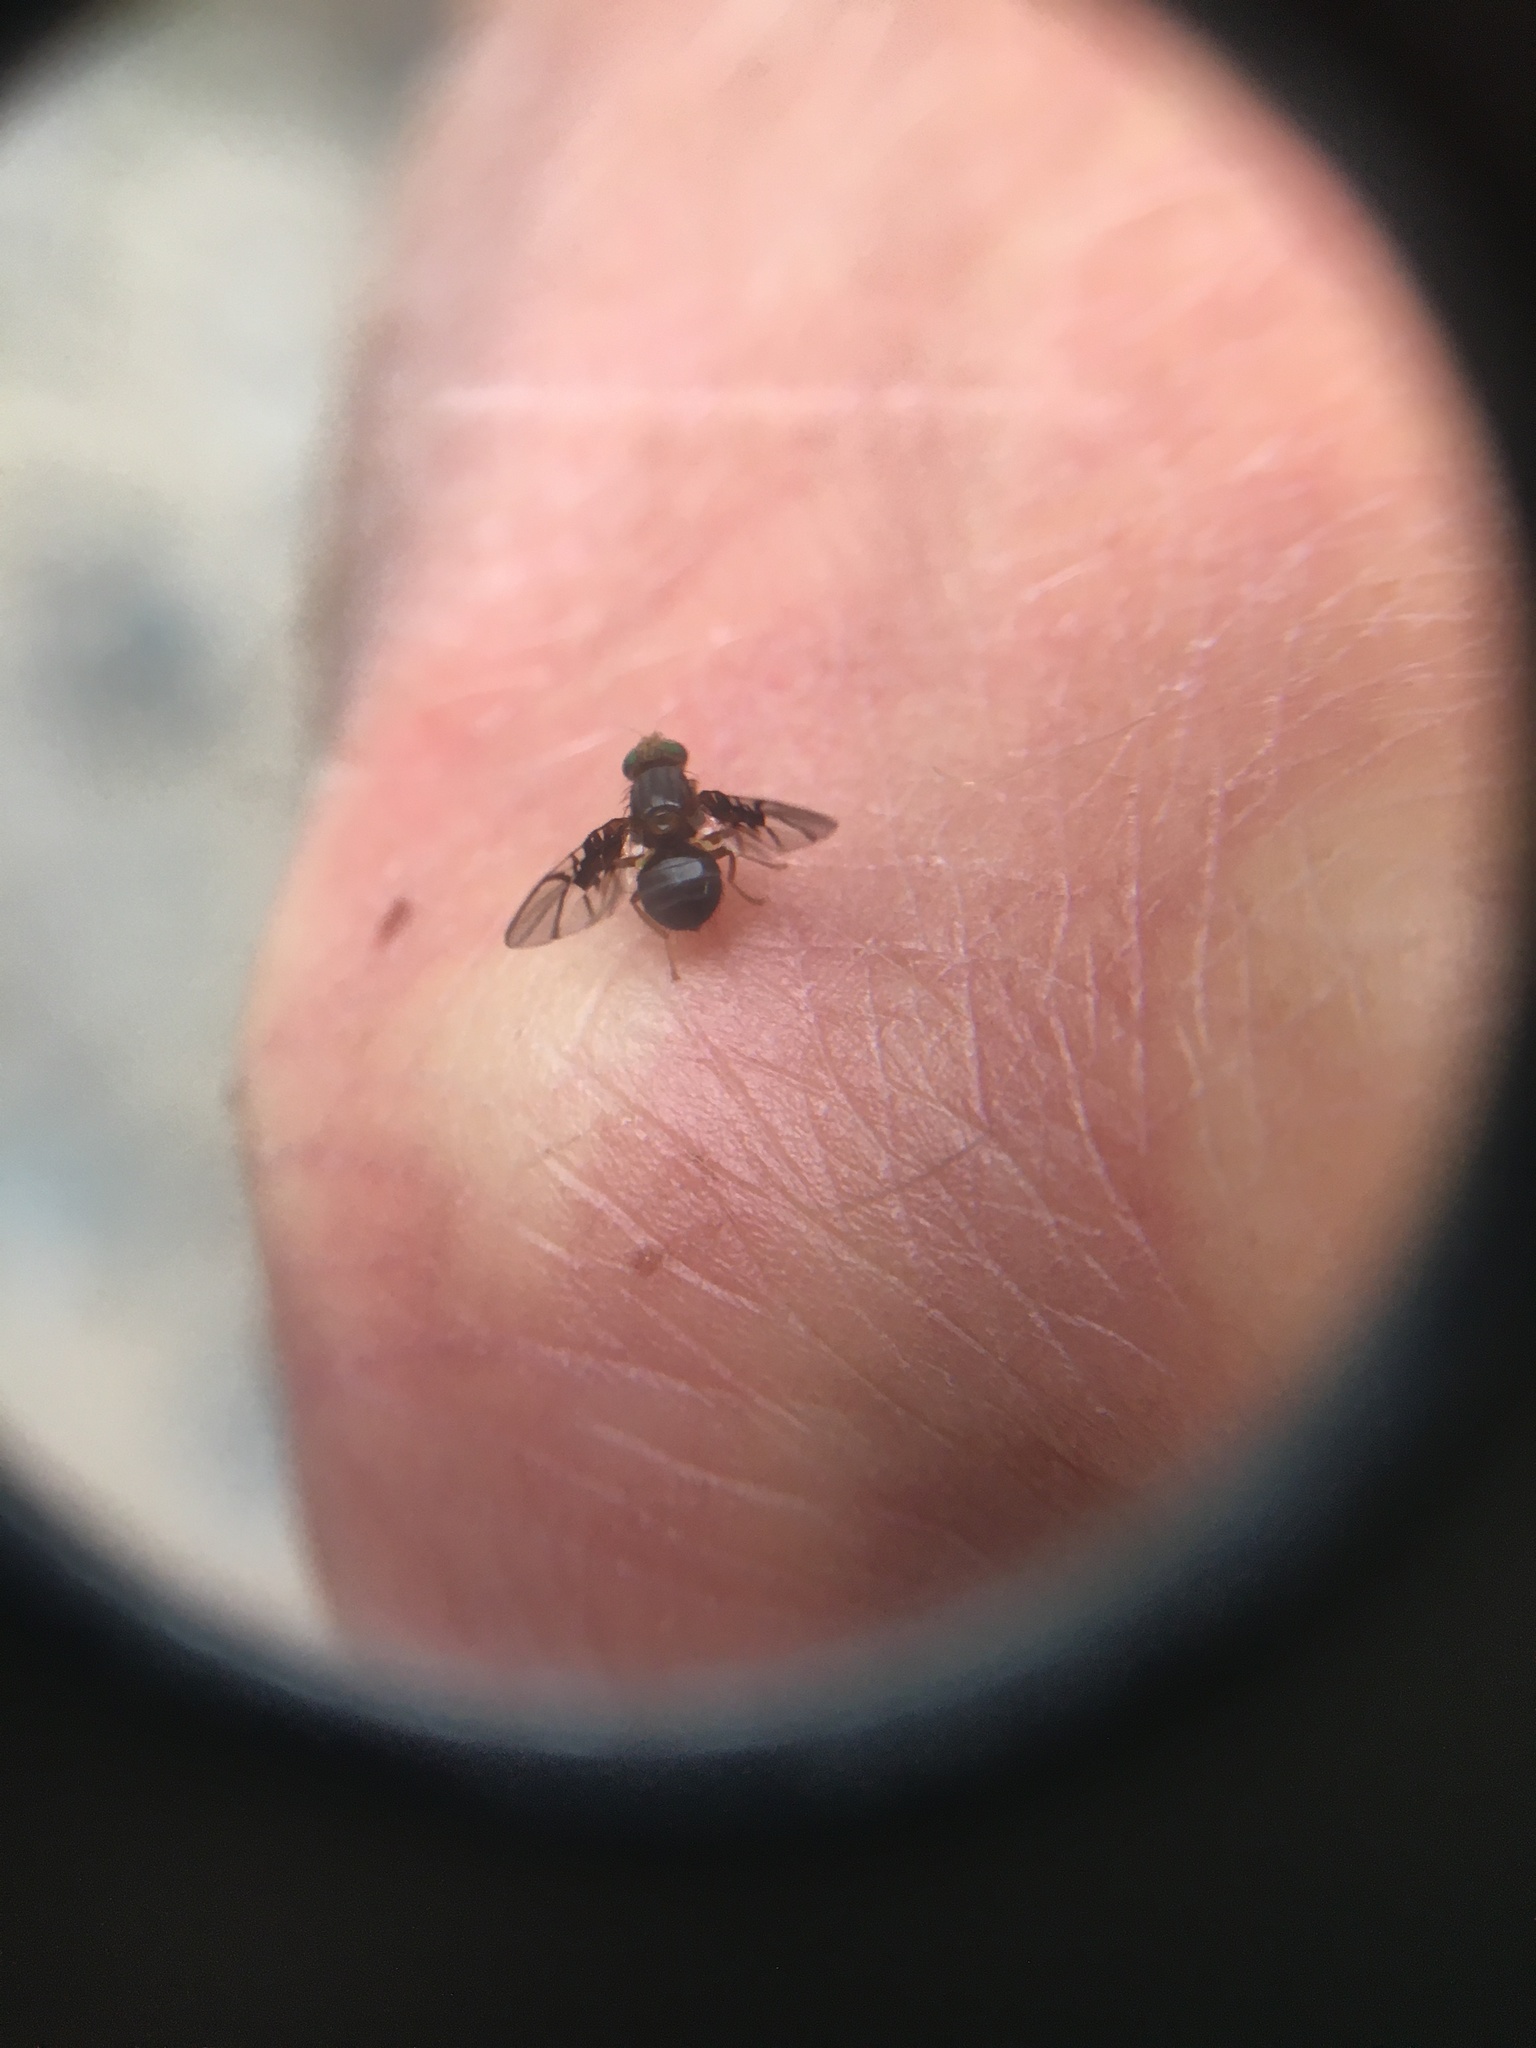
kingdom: Animalia
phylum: Arthropoda
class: Insecta
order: Diptera
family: Tephritidae
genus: Anomoia
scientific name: Anomoia purmunda
